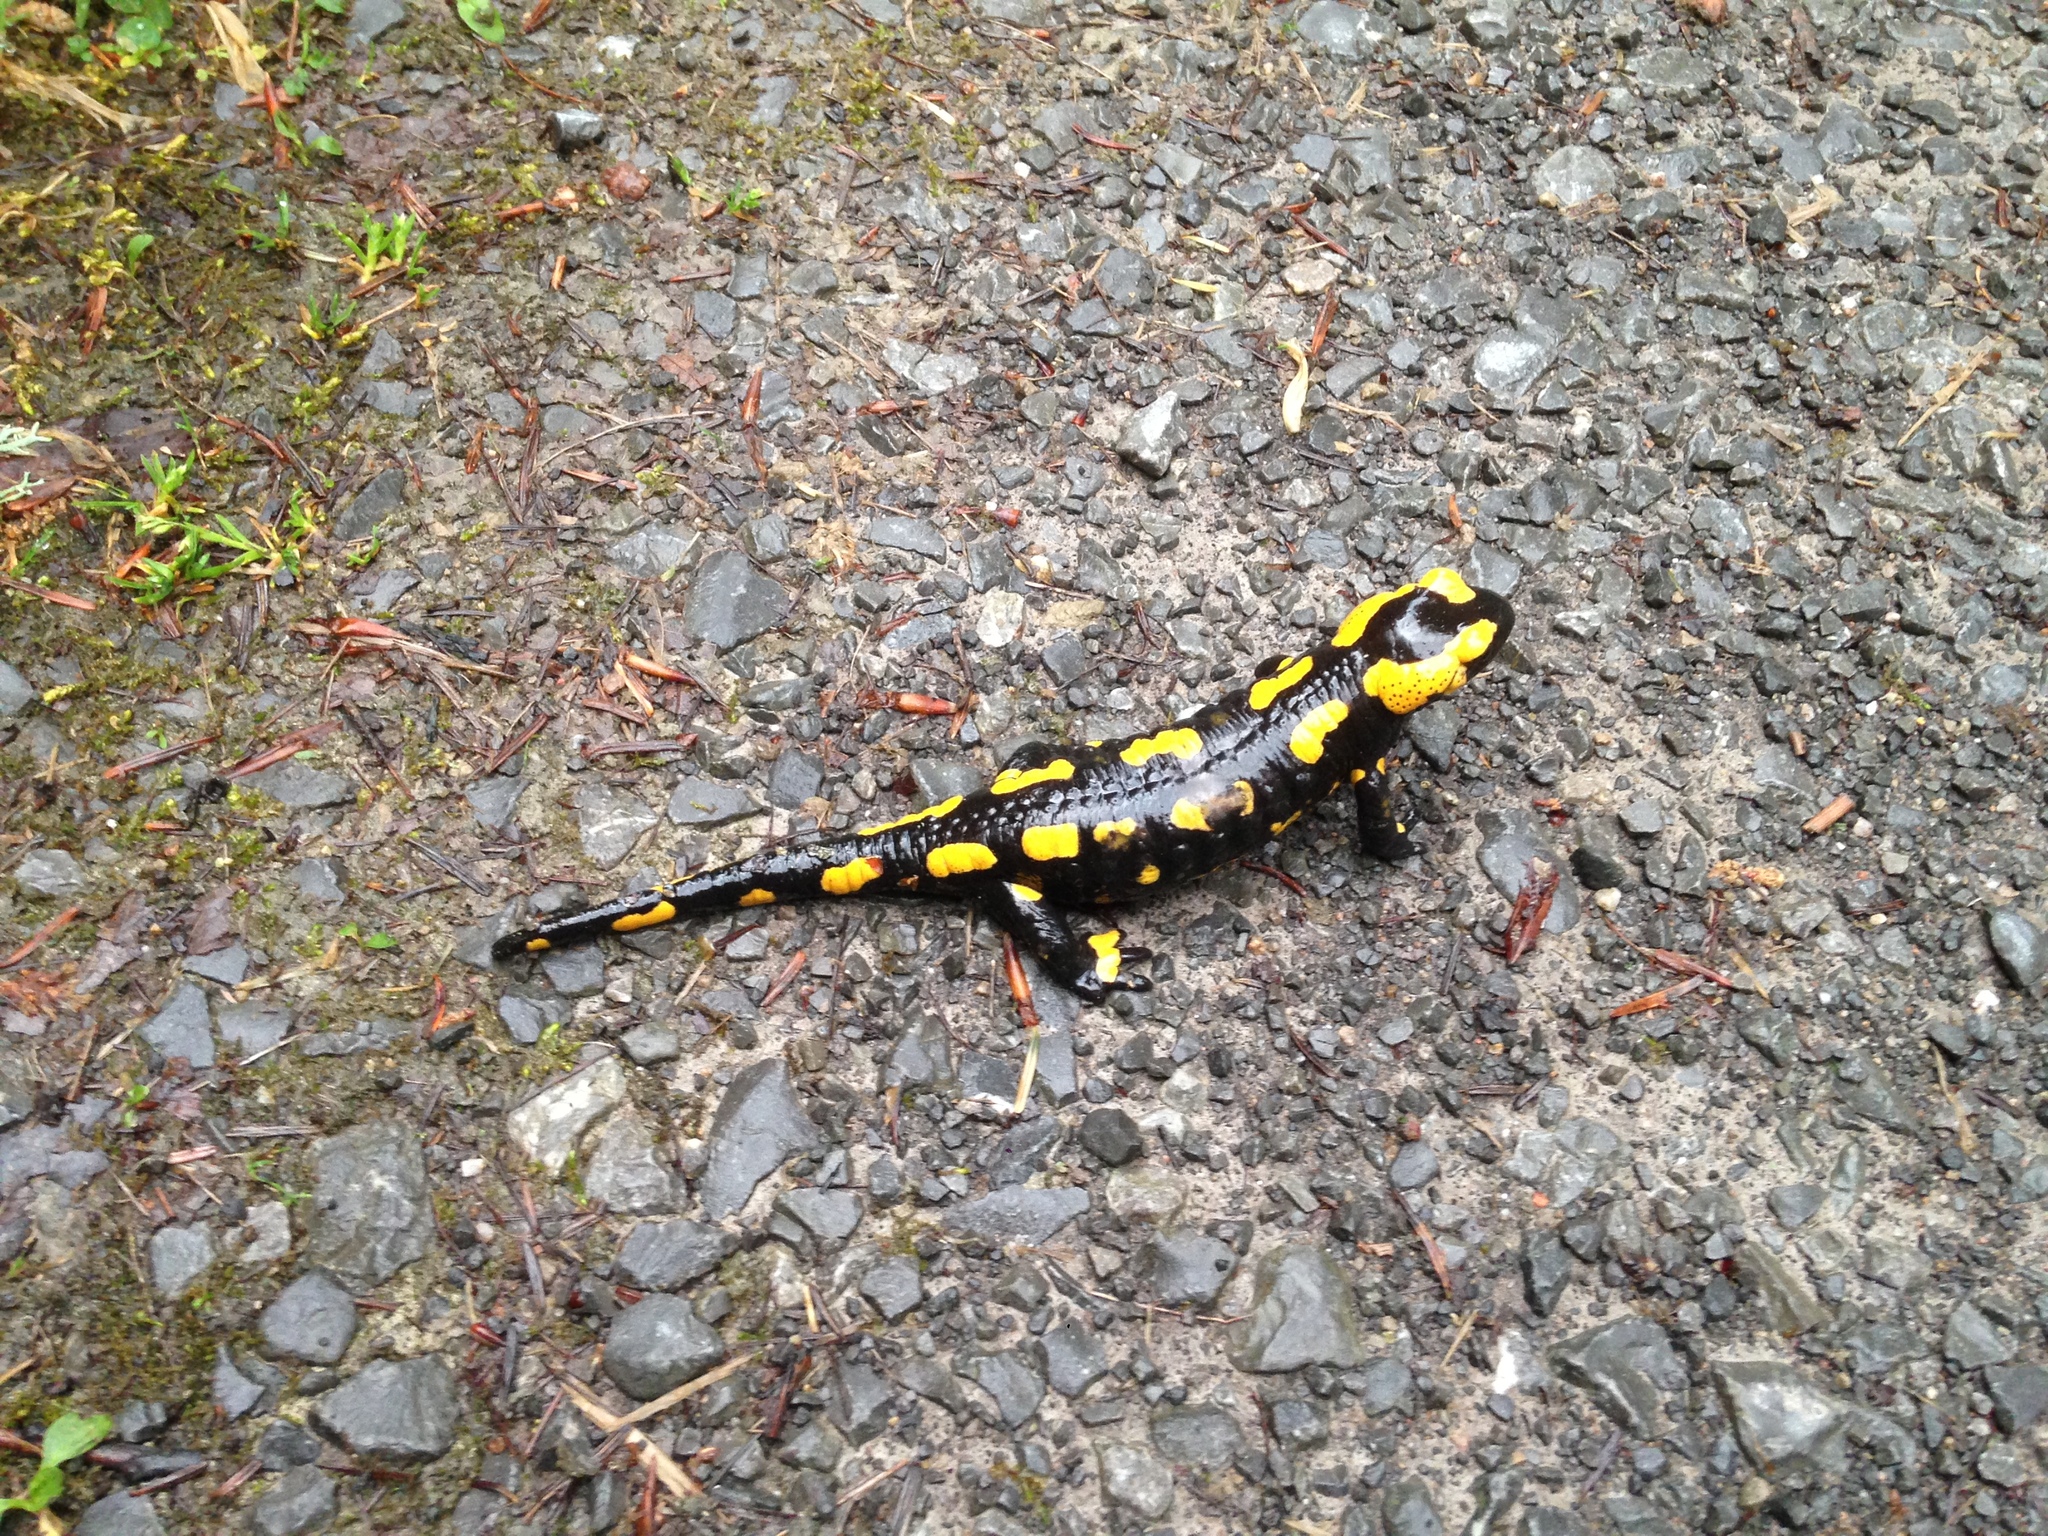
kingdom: Animalia
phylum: Chordata
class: Amphibia
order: Caudata
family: Salamandridae
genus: Salamandra
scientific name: Salamandra salamandra
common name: Fire salamander
